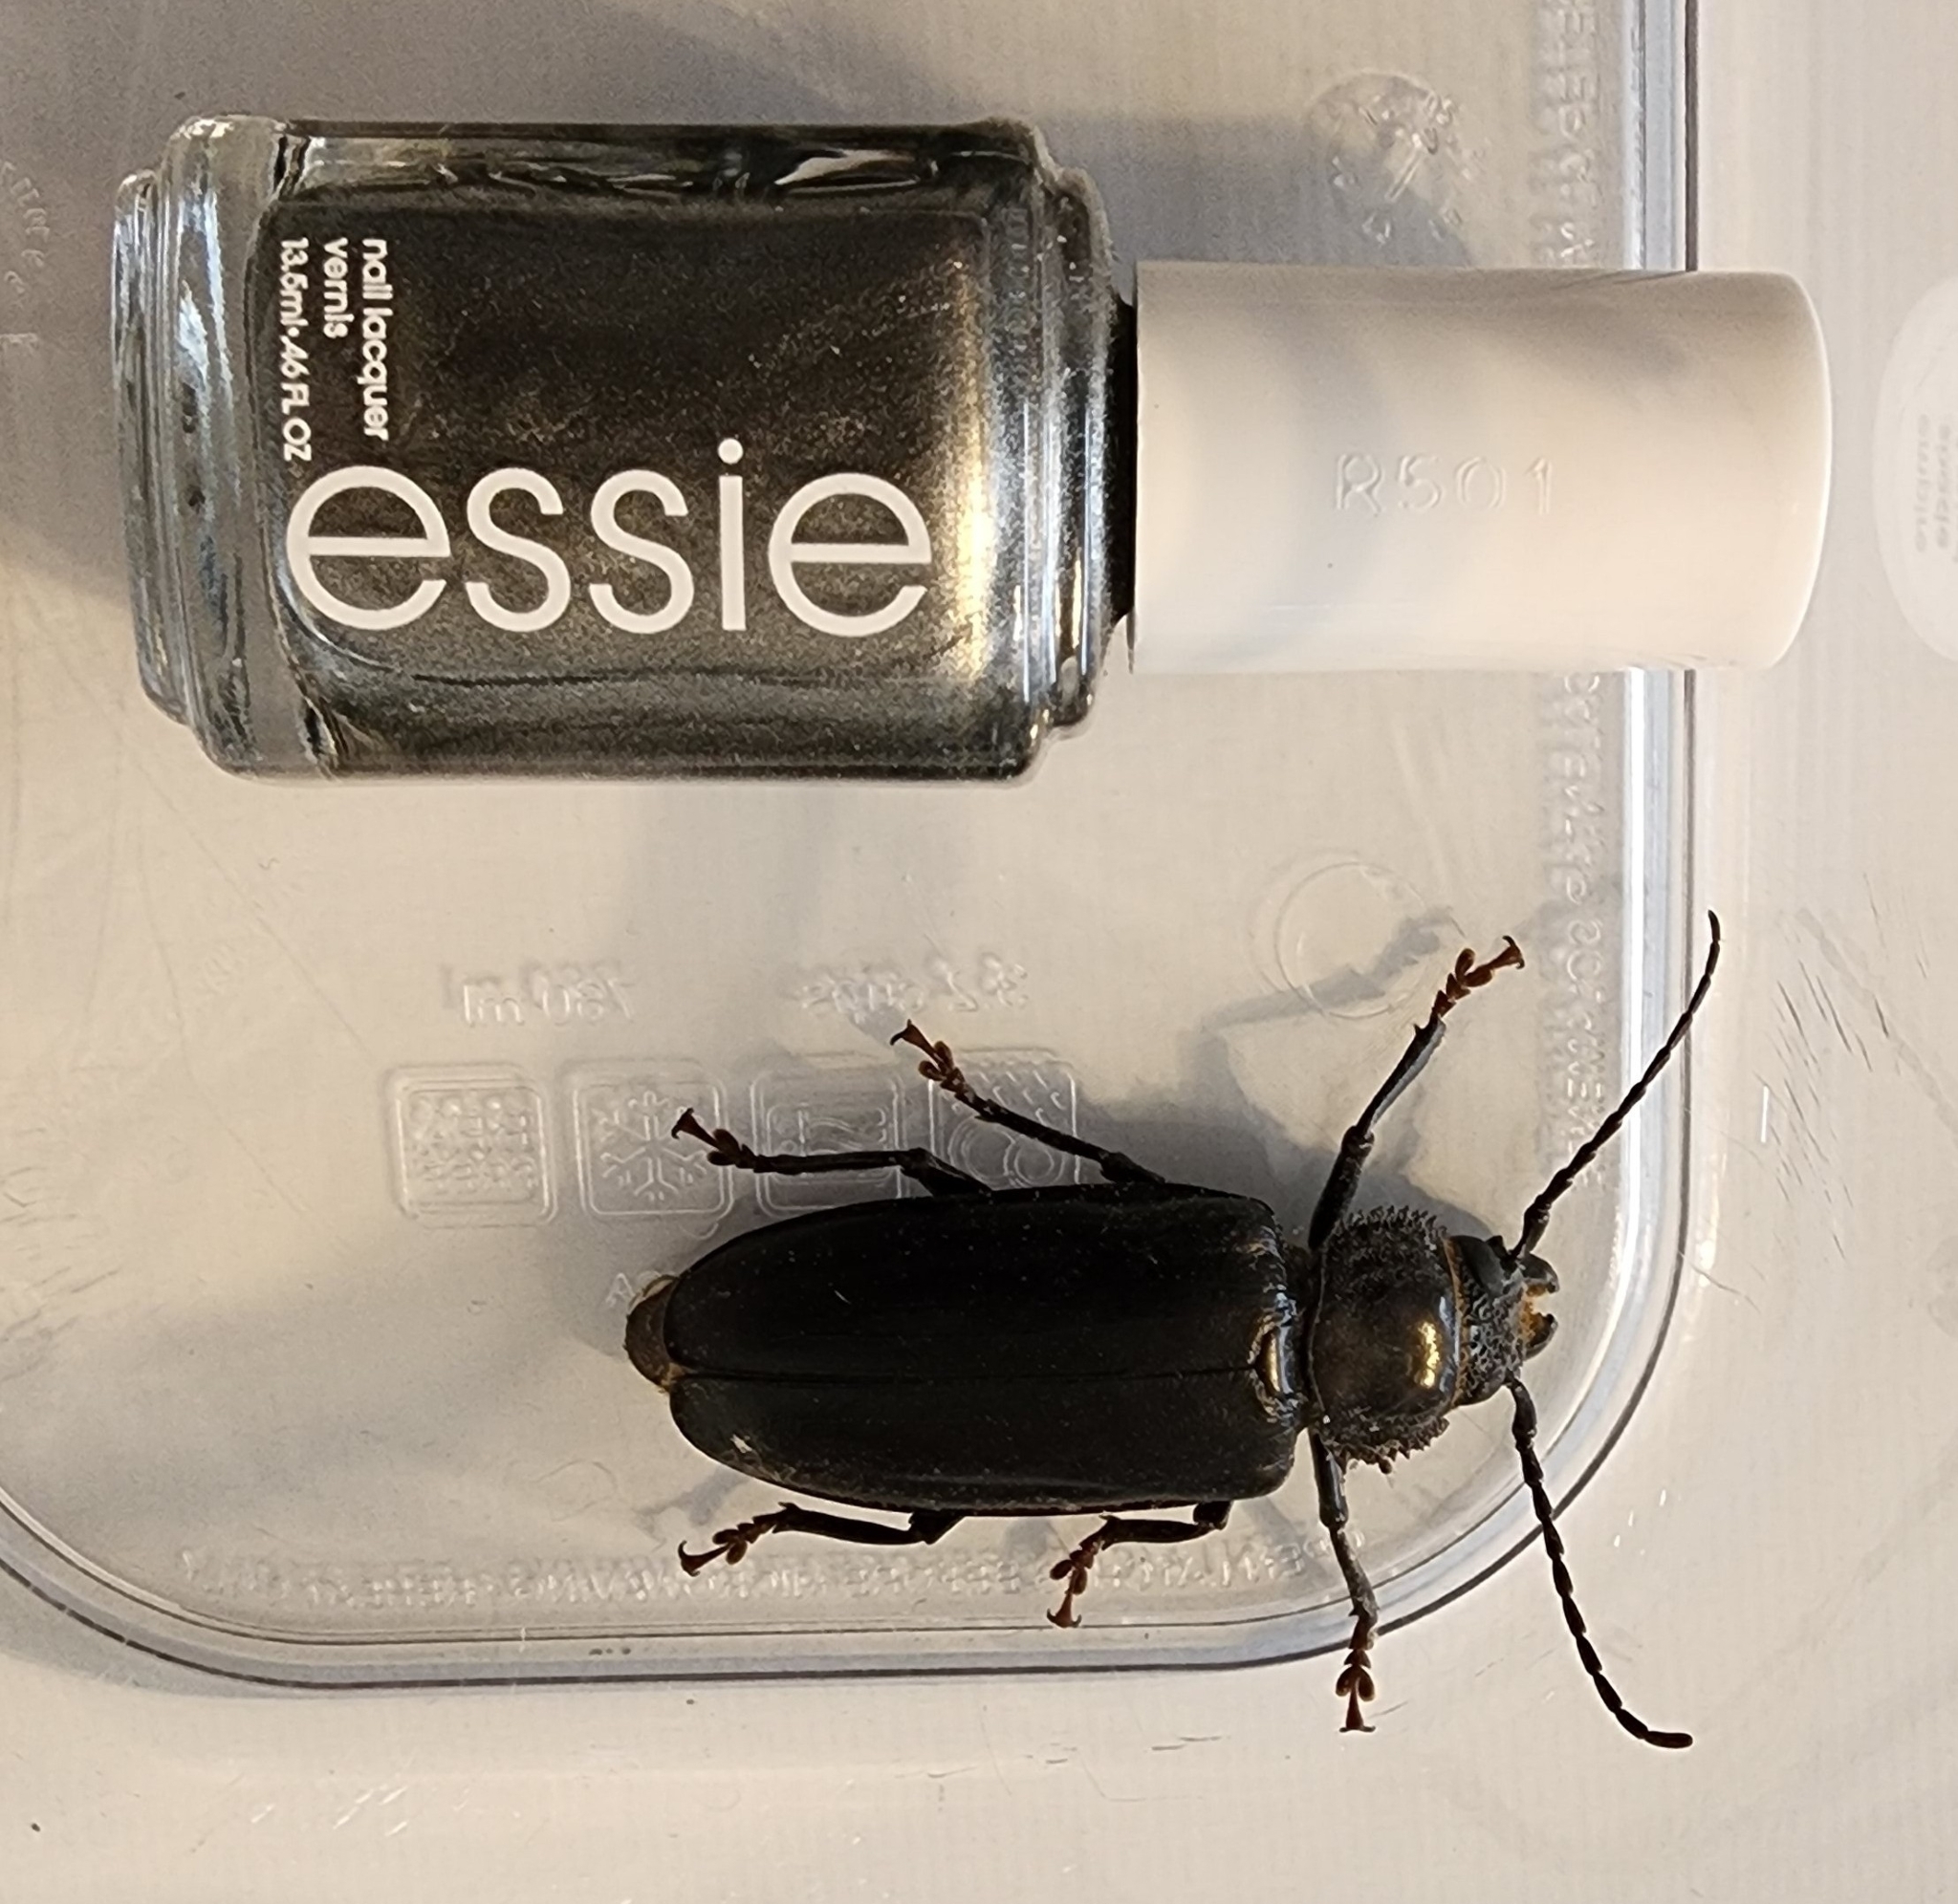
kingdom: Animalia
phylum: Arthropoda
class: Insecta
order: Coleoptera
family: Cerambycidae
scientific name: Cerambycidae
